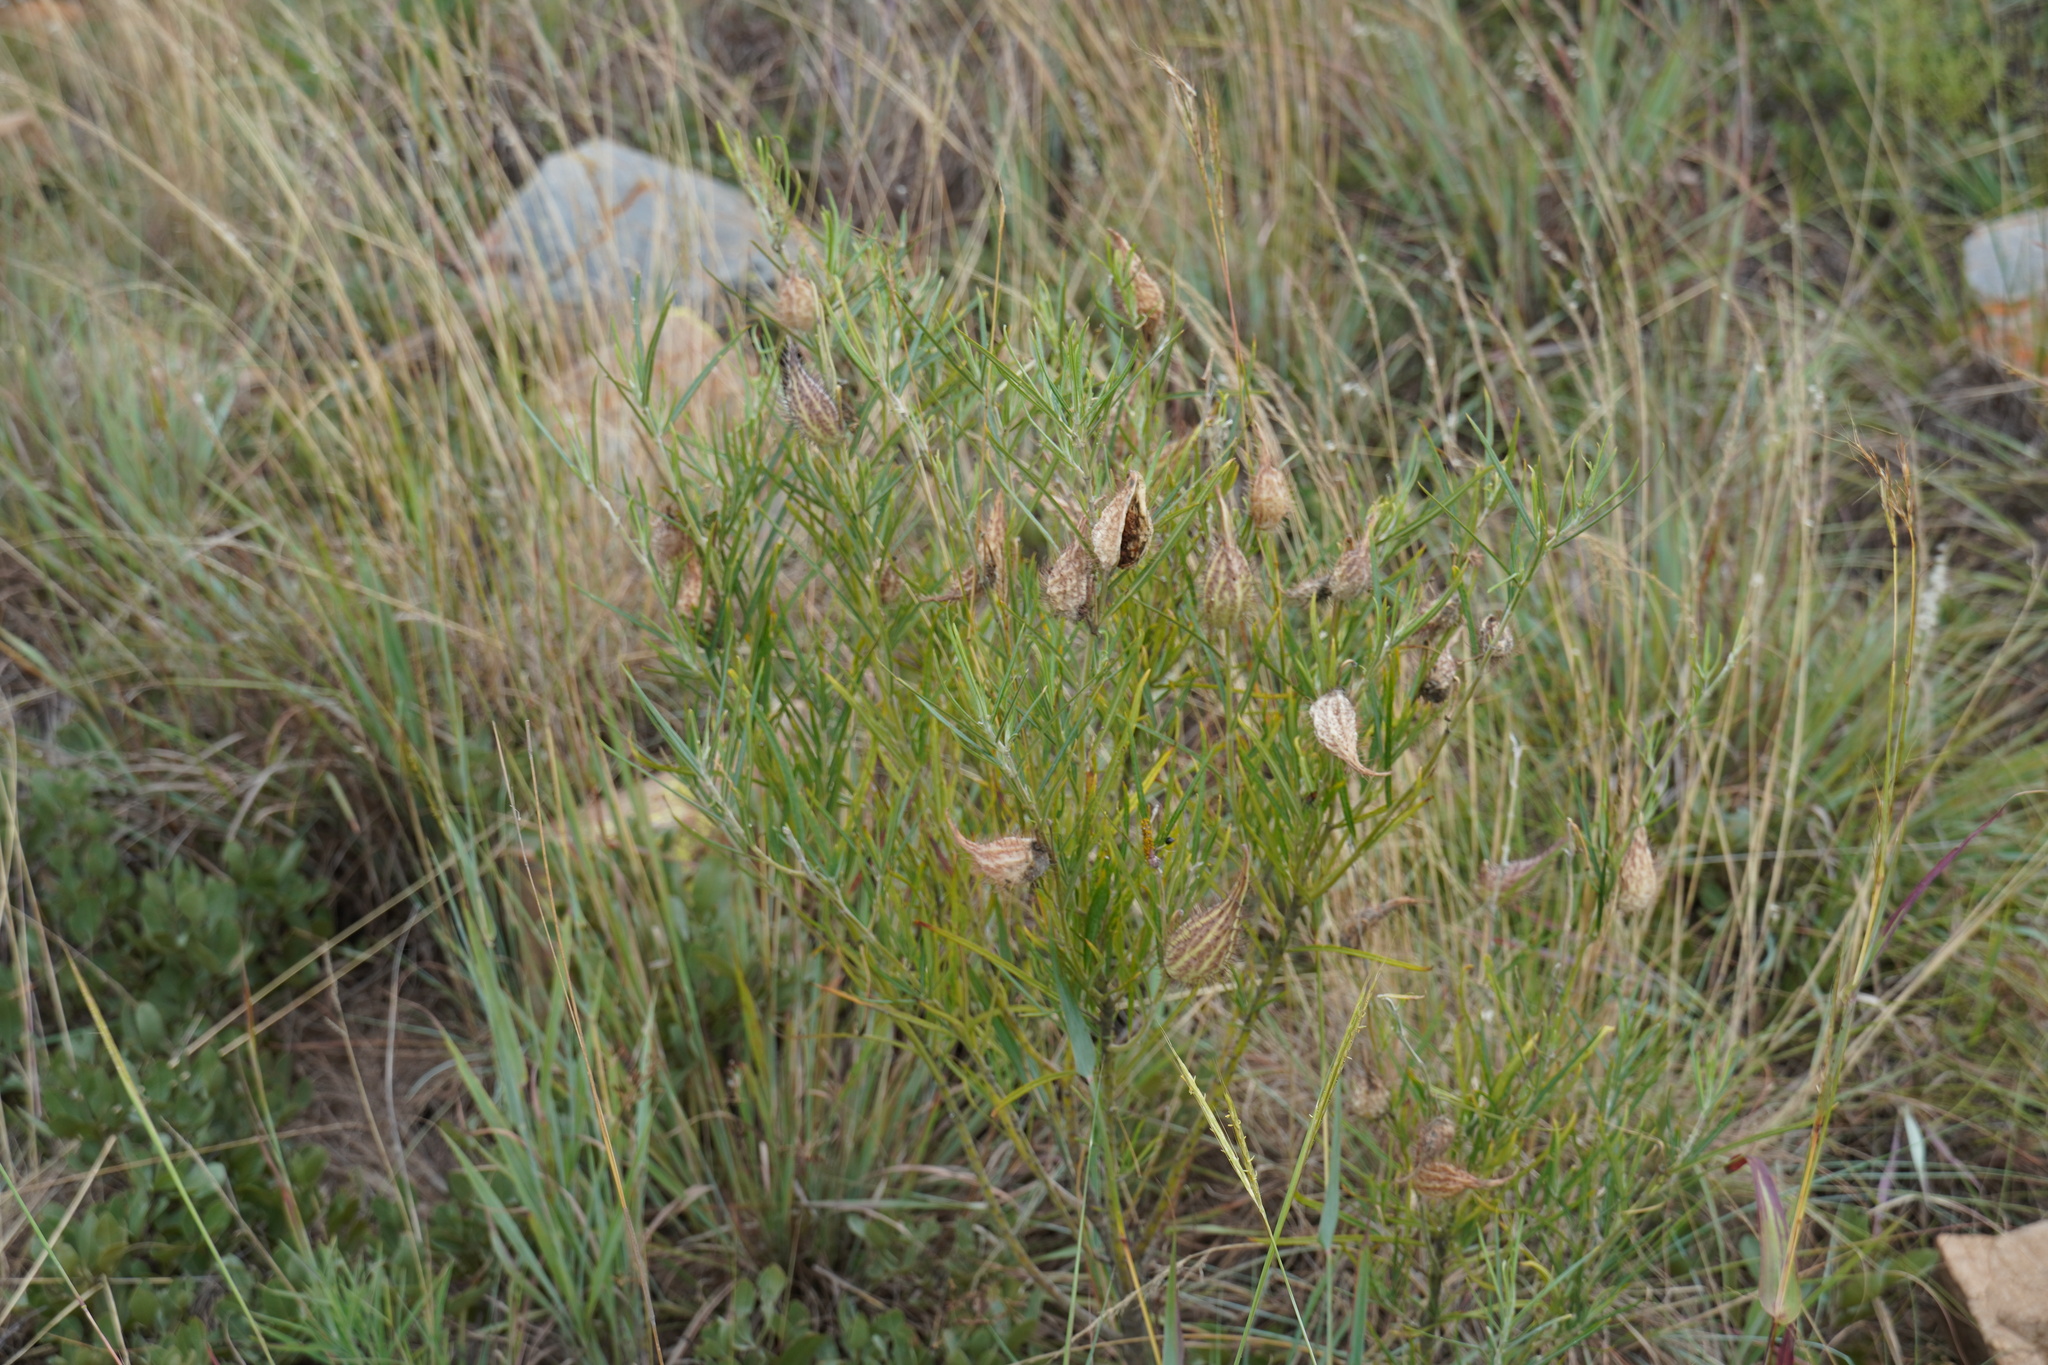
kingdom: Plantae
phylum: Tracheophyta
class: Magnoliopsida
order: Gentianales
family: Apocynaceae
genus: Gomphocarpus
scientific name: Gomphocarpus fruticosus
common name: Milkweed
